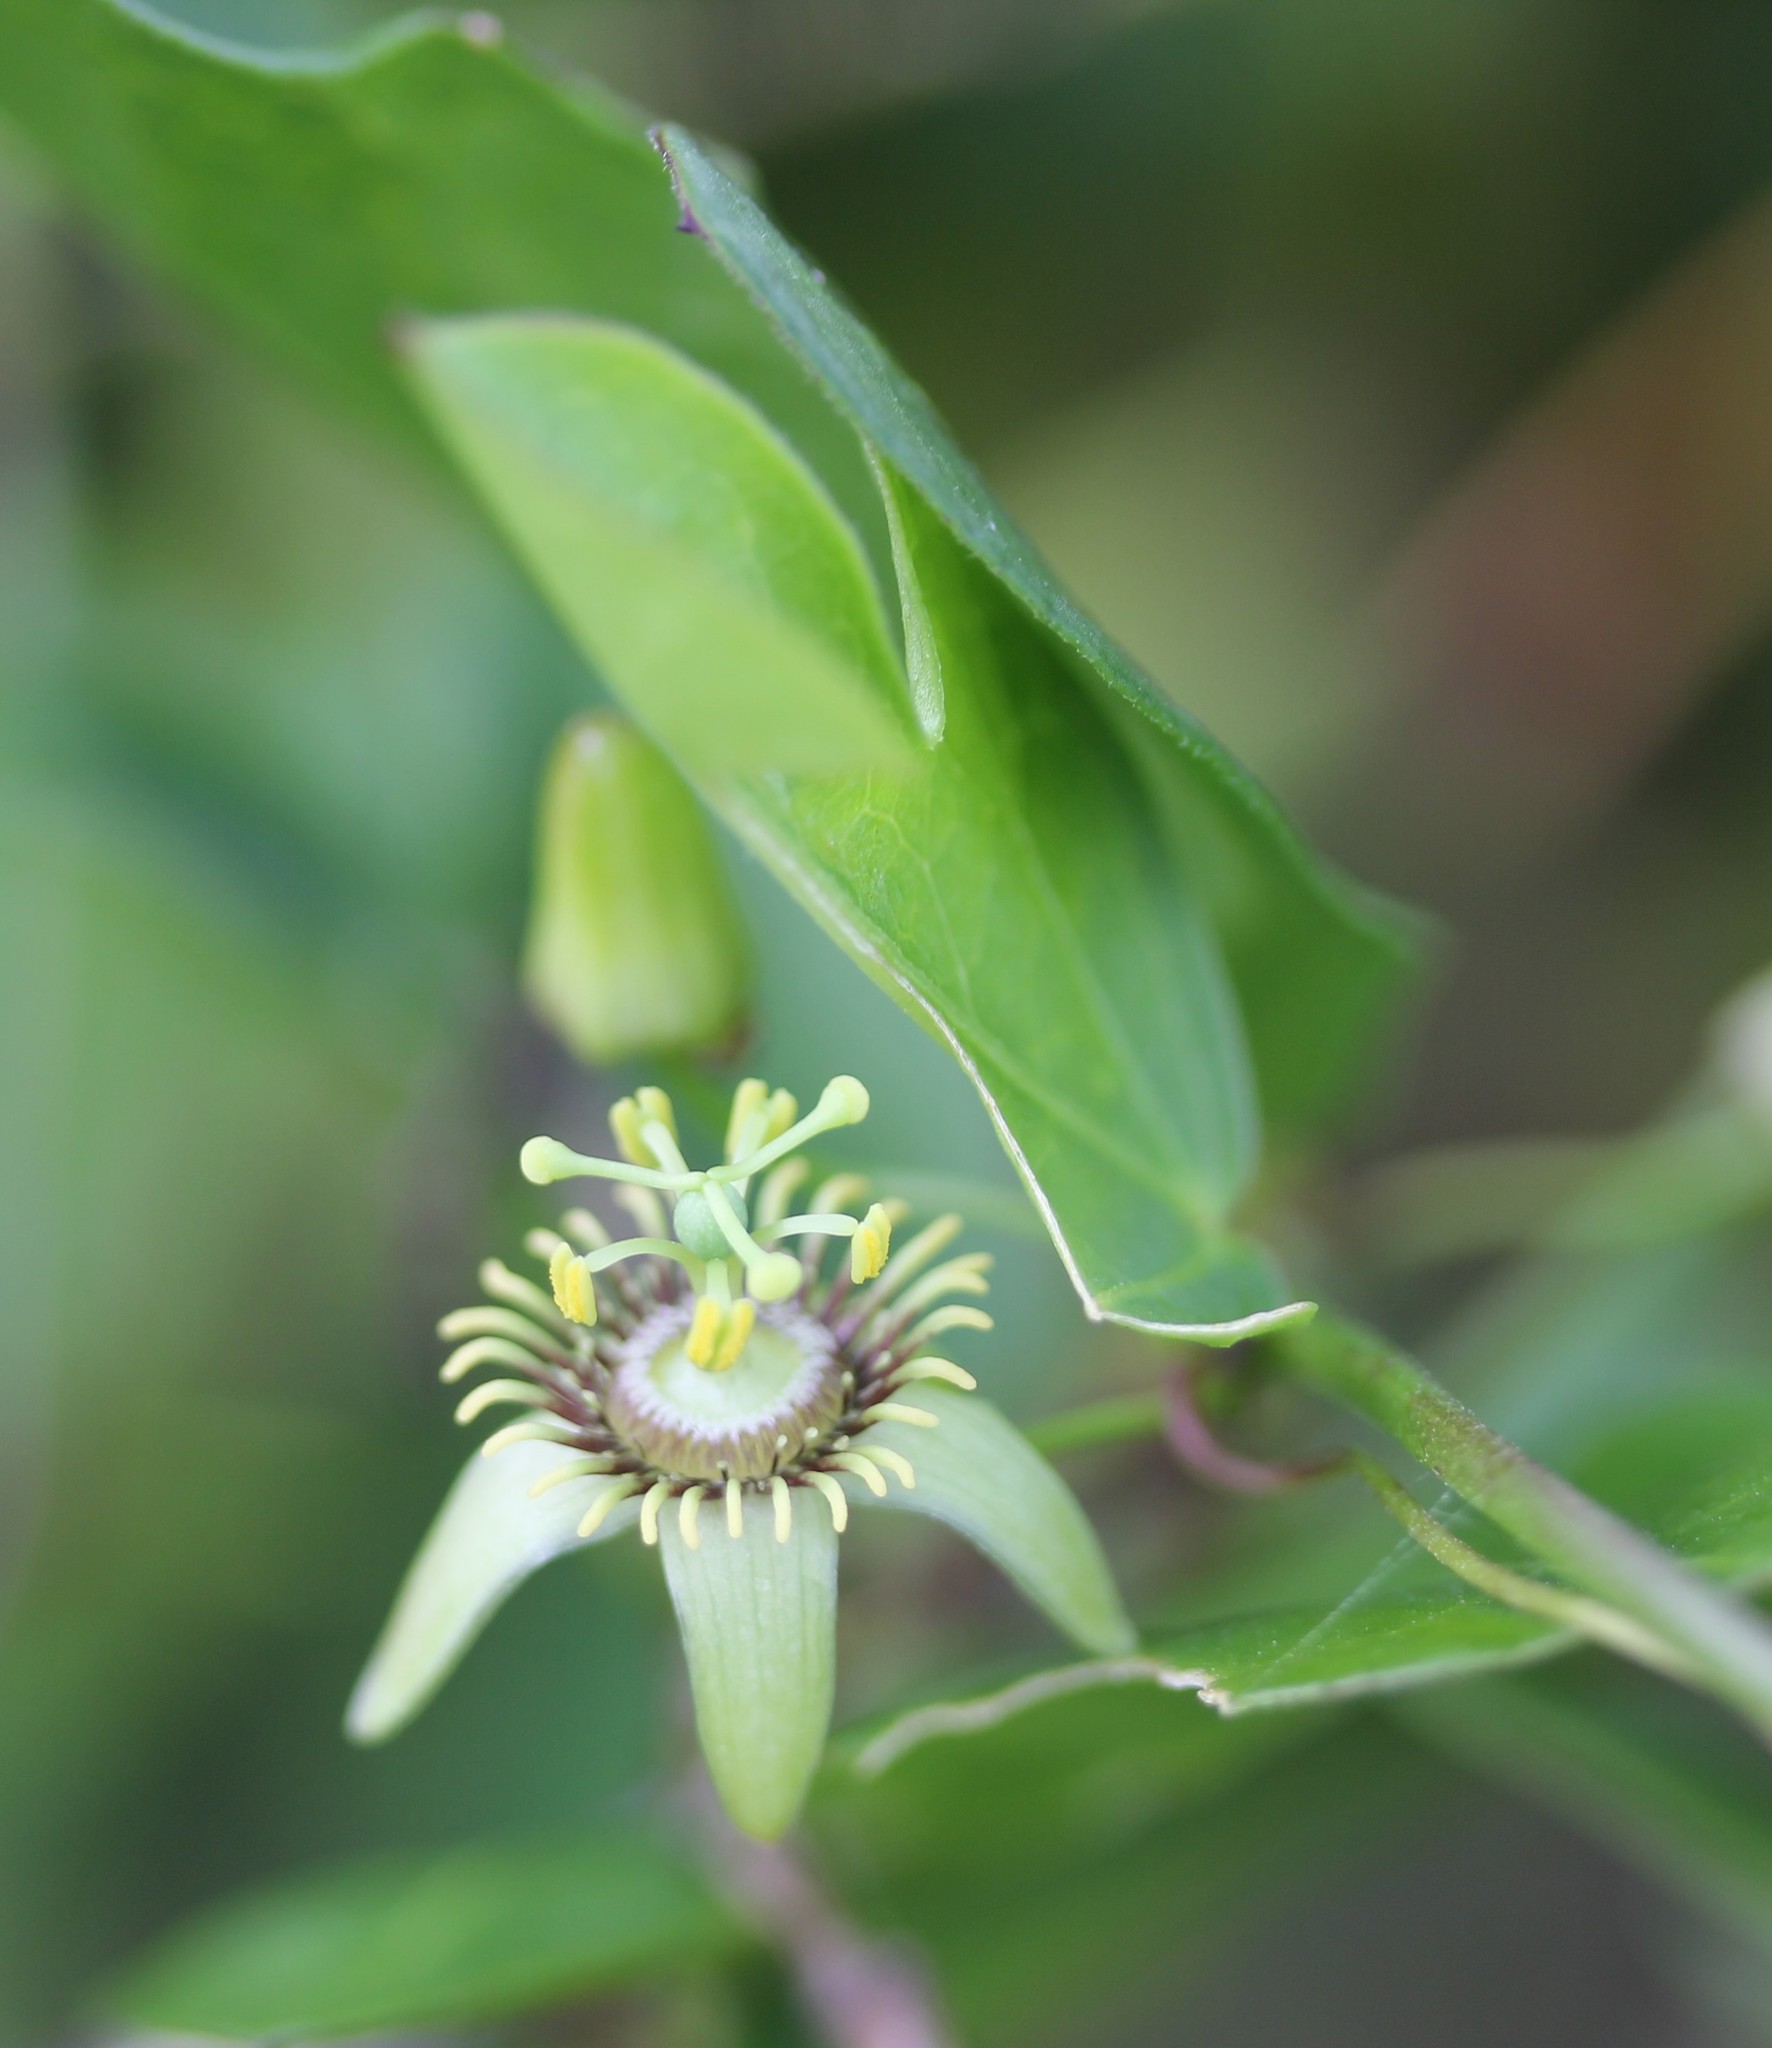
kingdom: Plantae
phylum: Tracheophyta
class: Magnoliopsida
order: Malpighiales
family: Passifloraceae
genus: Passiflora
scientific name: Passiflora pallida
